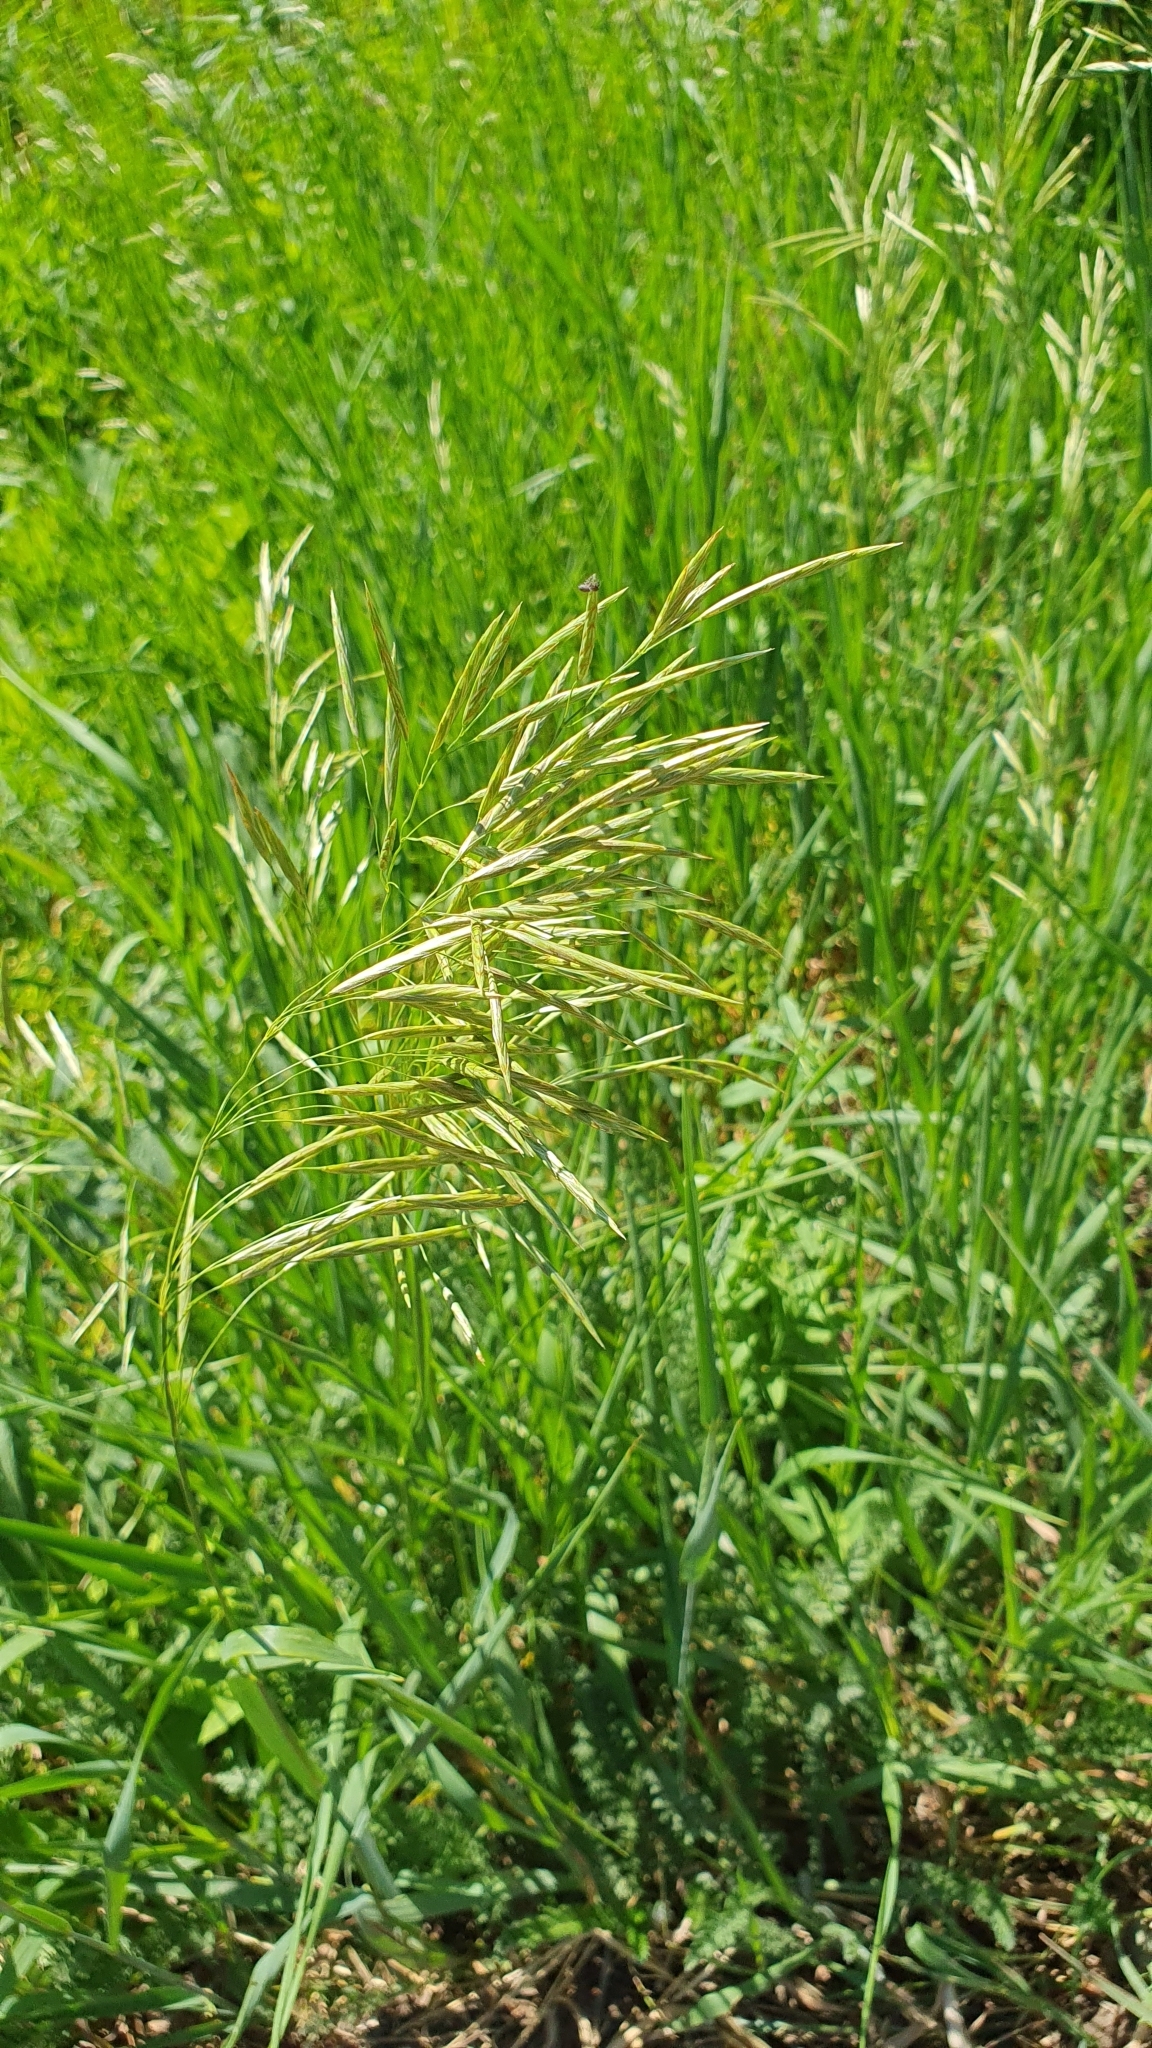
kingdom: Plantae
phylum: Tracheophyta
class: Liliopsida
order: Poales
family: Poaceae
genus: Bromus
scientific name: Bromus inermis
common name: Smooth brome
